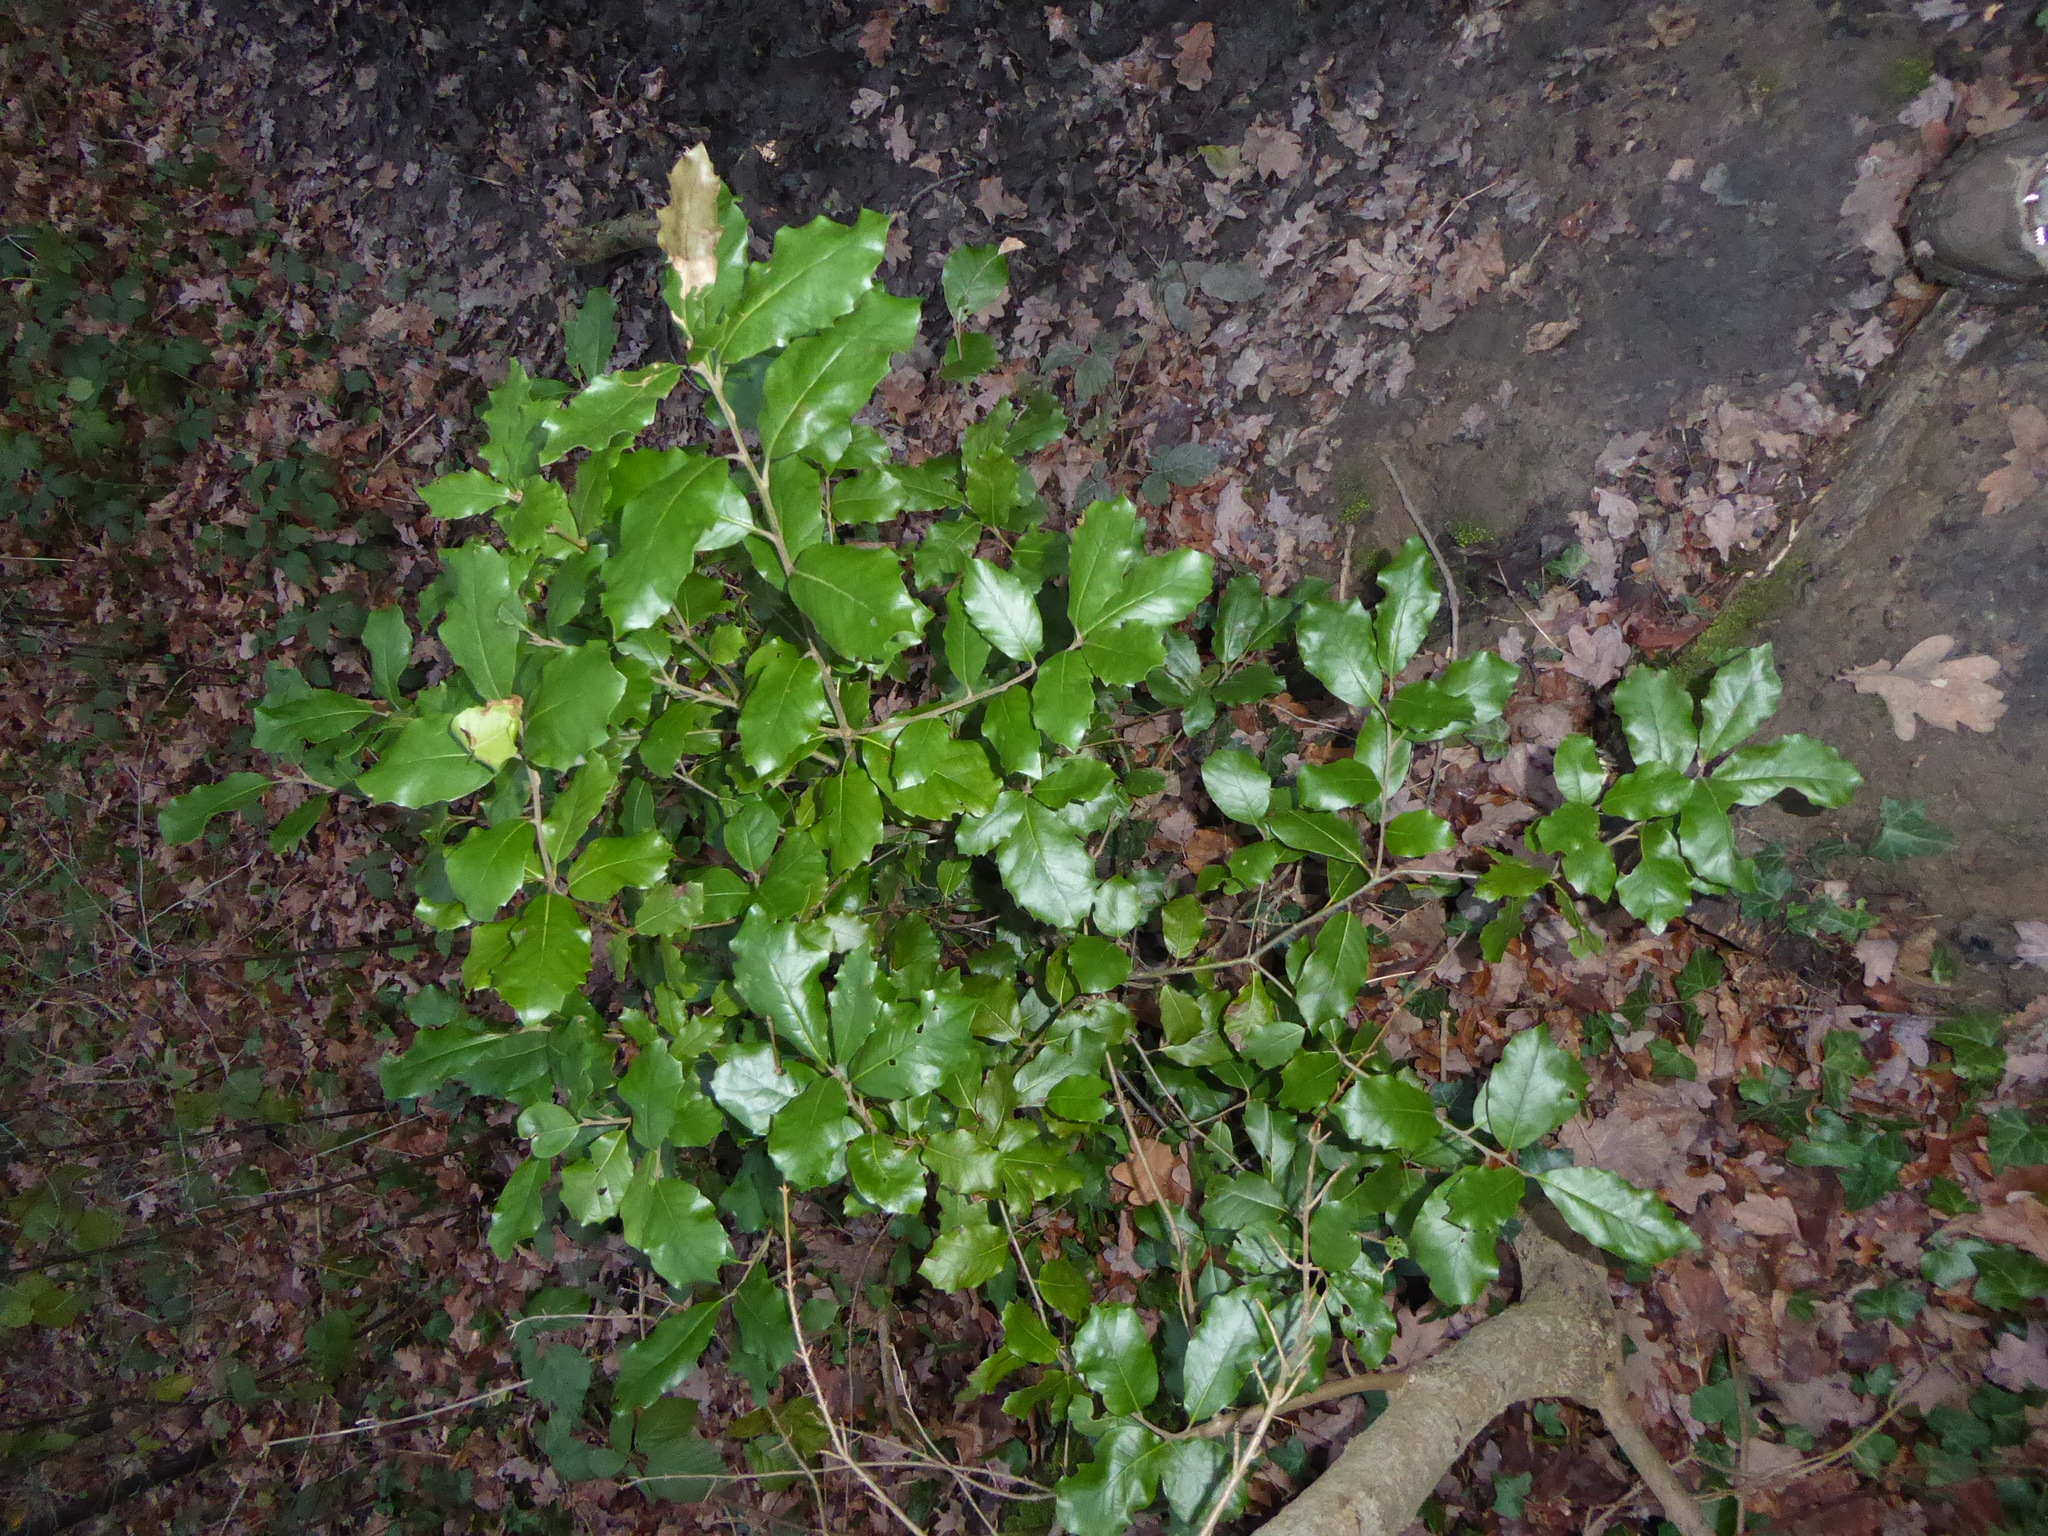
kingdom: Plantae
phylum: Tracheophyta
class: Magnoliopsida
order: Fagales
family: Fagaceae
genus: Quercus
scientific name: Quercus ilex
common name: Evergreen oak
